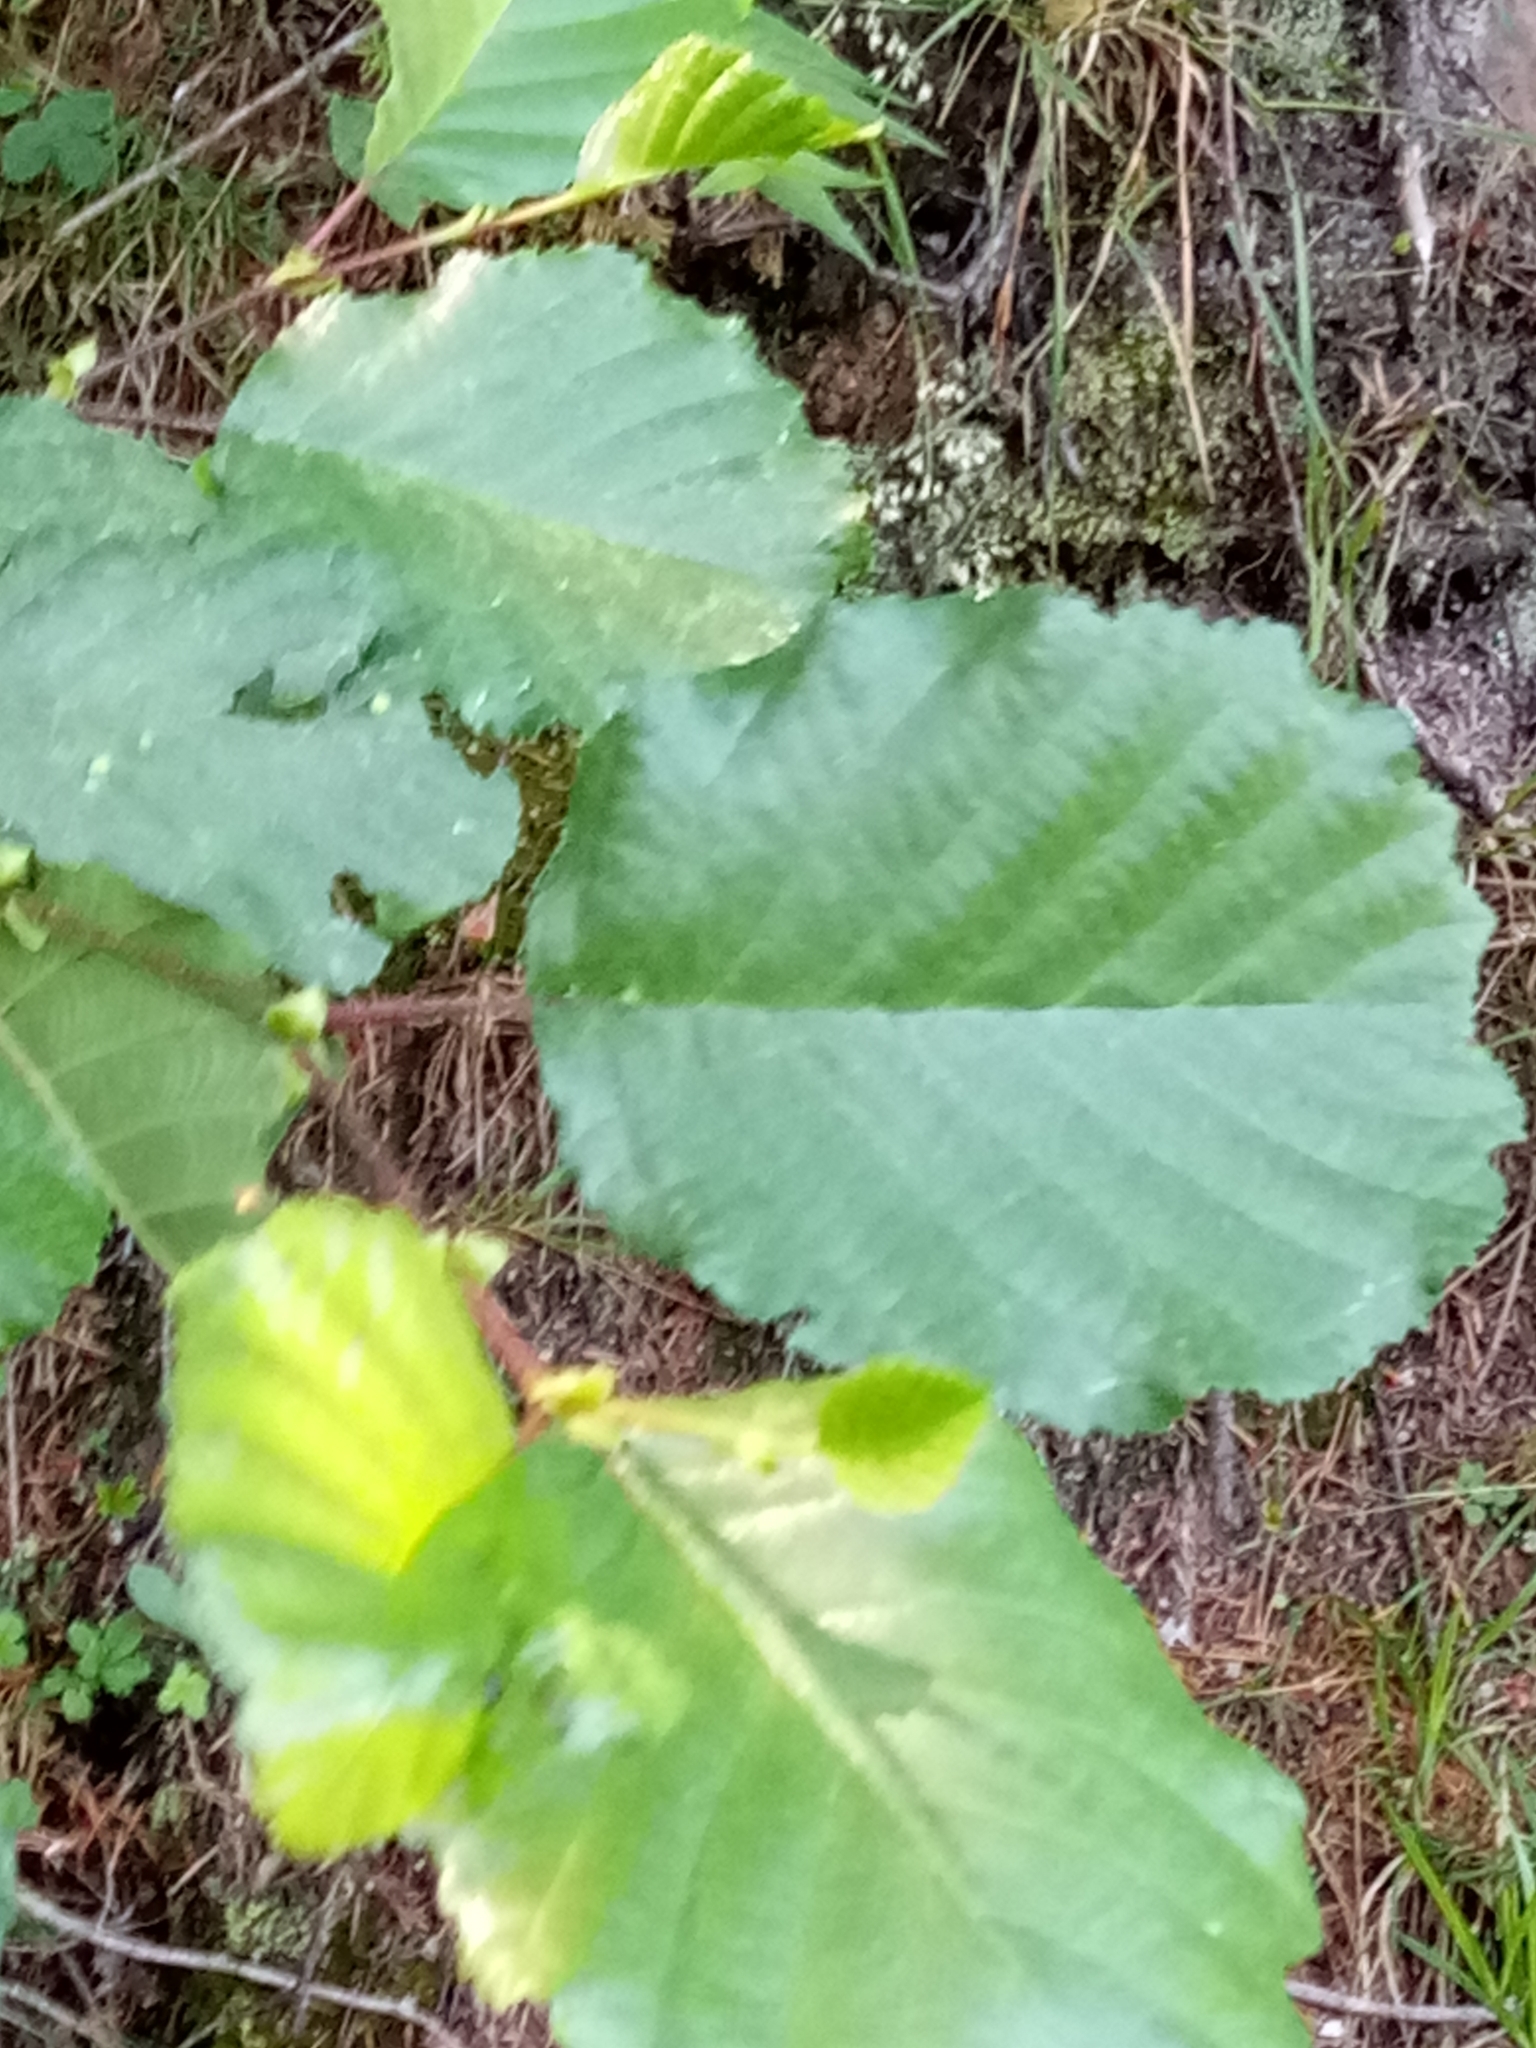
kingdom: Plantae
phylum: Tracheophyta
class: Magnoliopsida
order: Fagales
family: Betulaceae
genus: Alnus
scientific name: Alnus glutinosa
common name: Black alder
